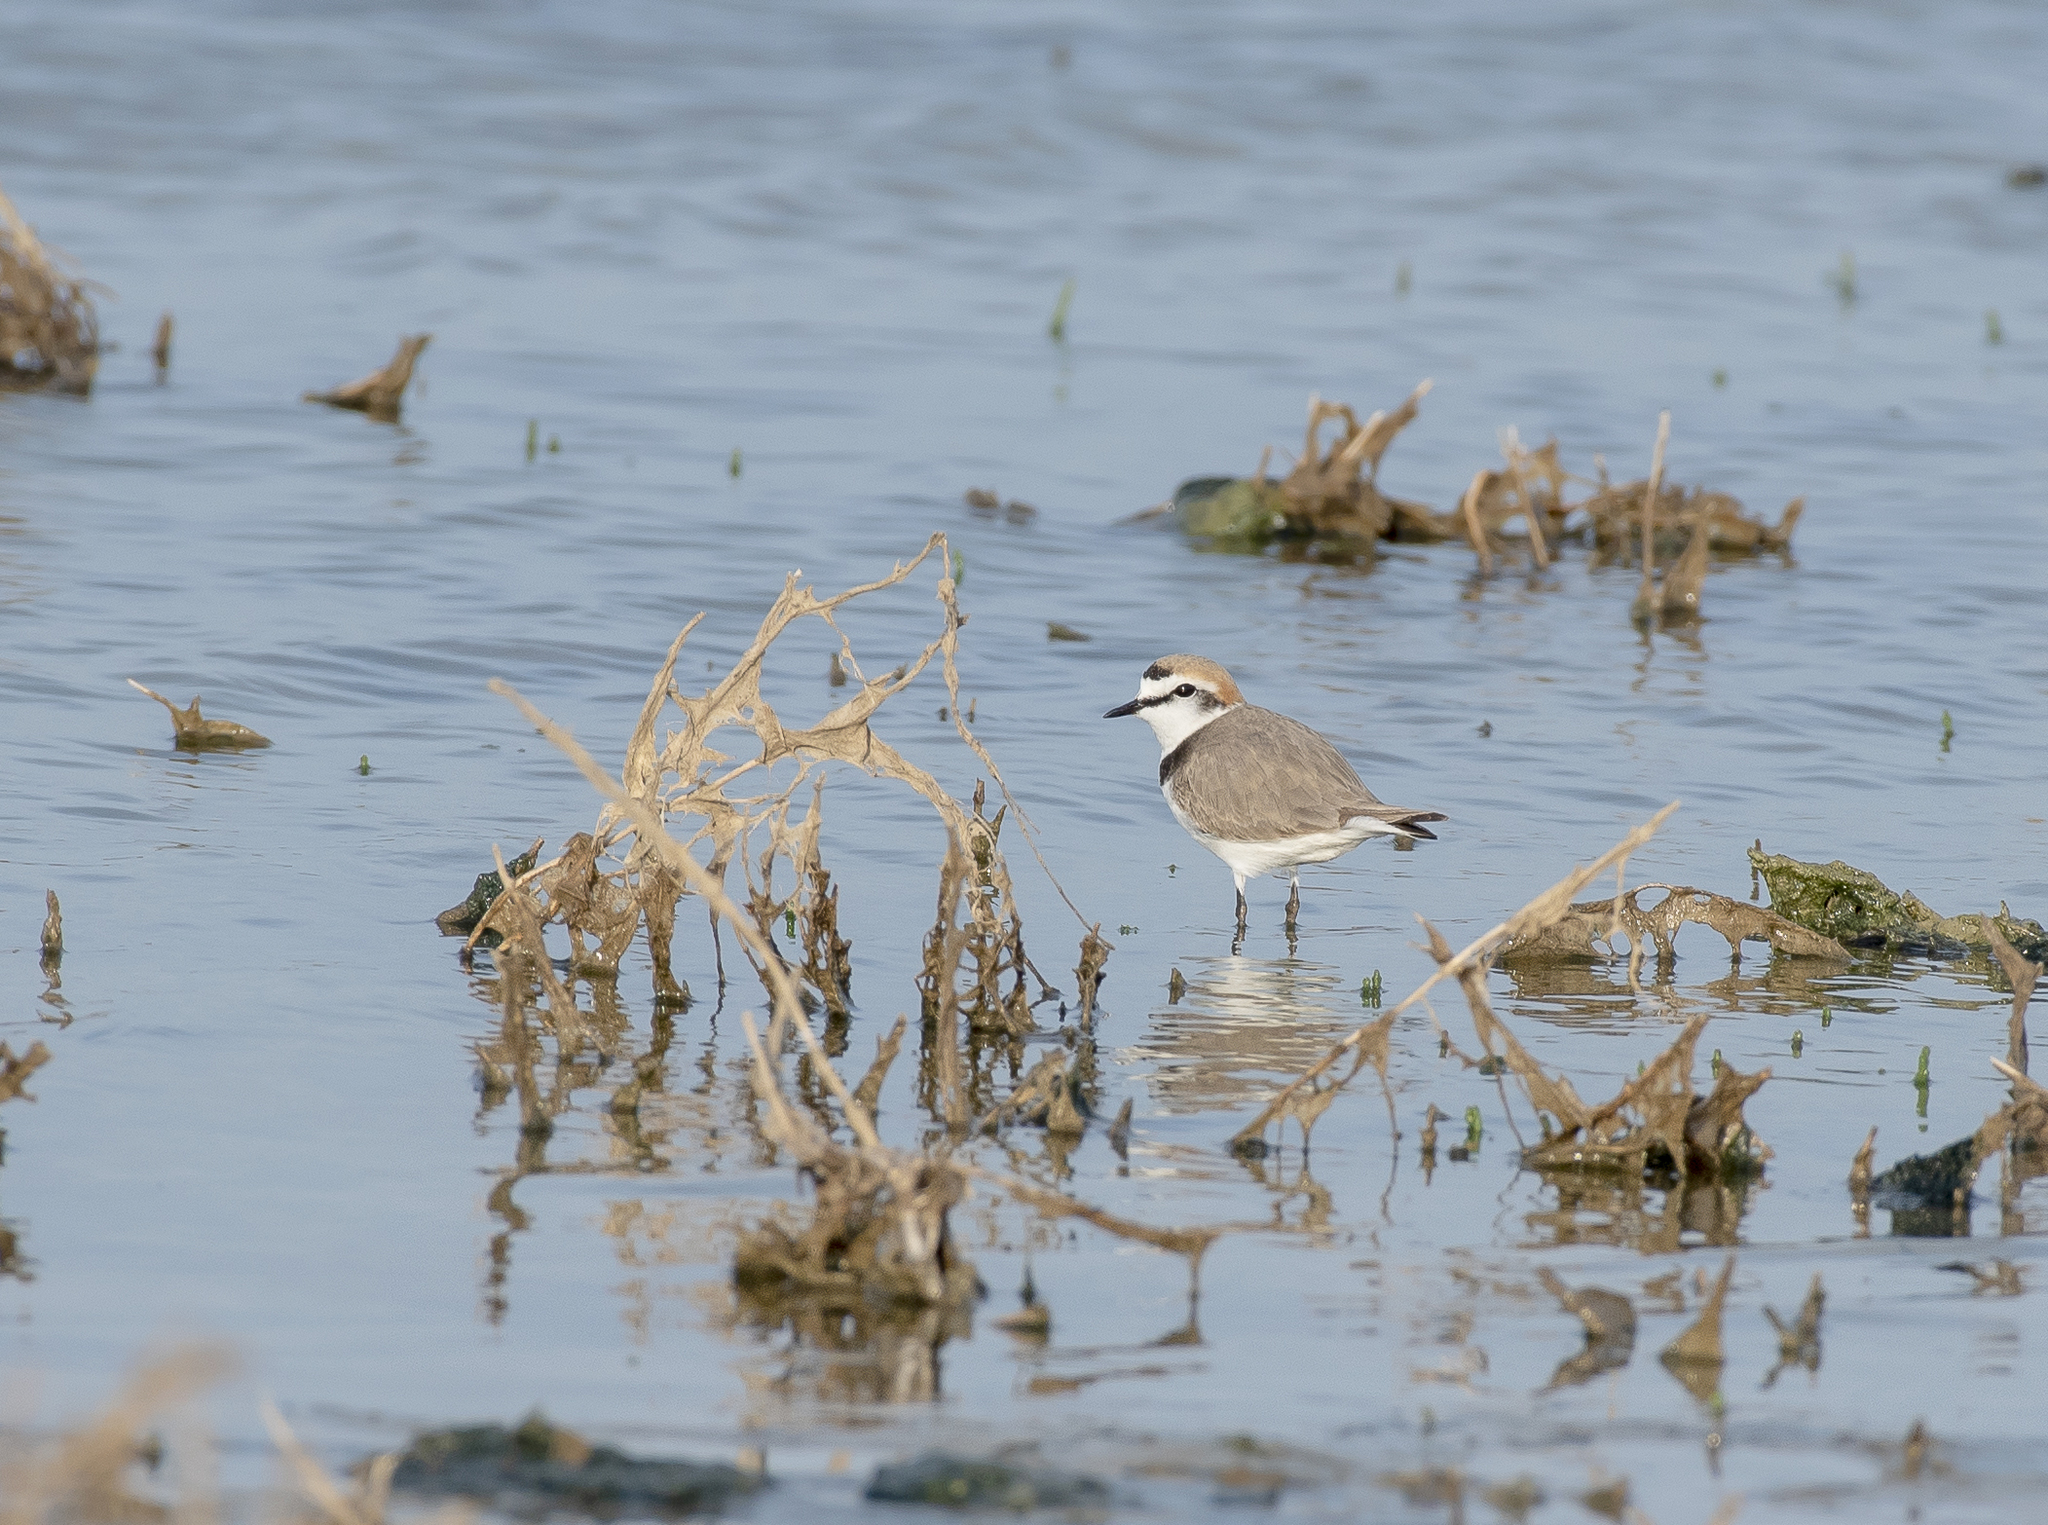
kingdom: Animalia
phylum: Chordata
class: Aves
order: Charadriiformes
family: Charadriidae
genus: Charadrius
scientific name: Charadrius alexandrinus
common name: Kentish plover
